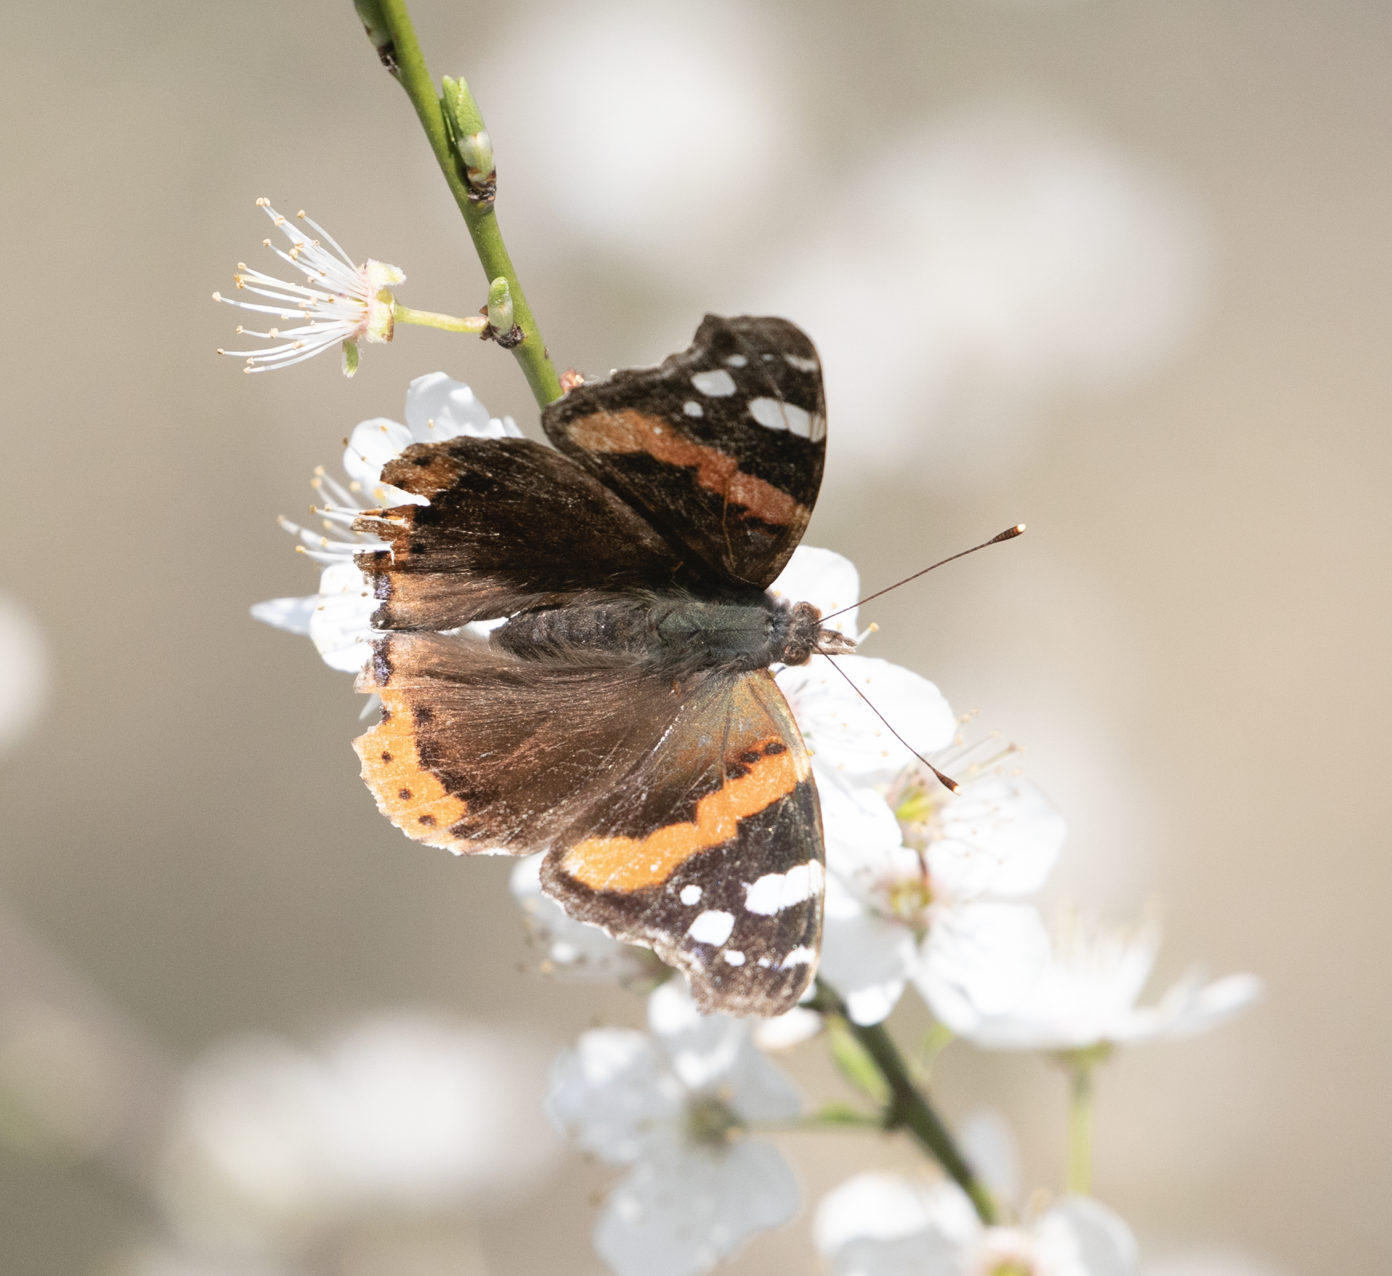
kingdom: Animalia
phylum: Arthropoda
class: Insecta
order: Lepidoptera
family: Nymphalidae
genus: Vanessa
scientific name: Vanessa atalanta
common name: Red admiral
